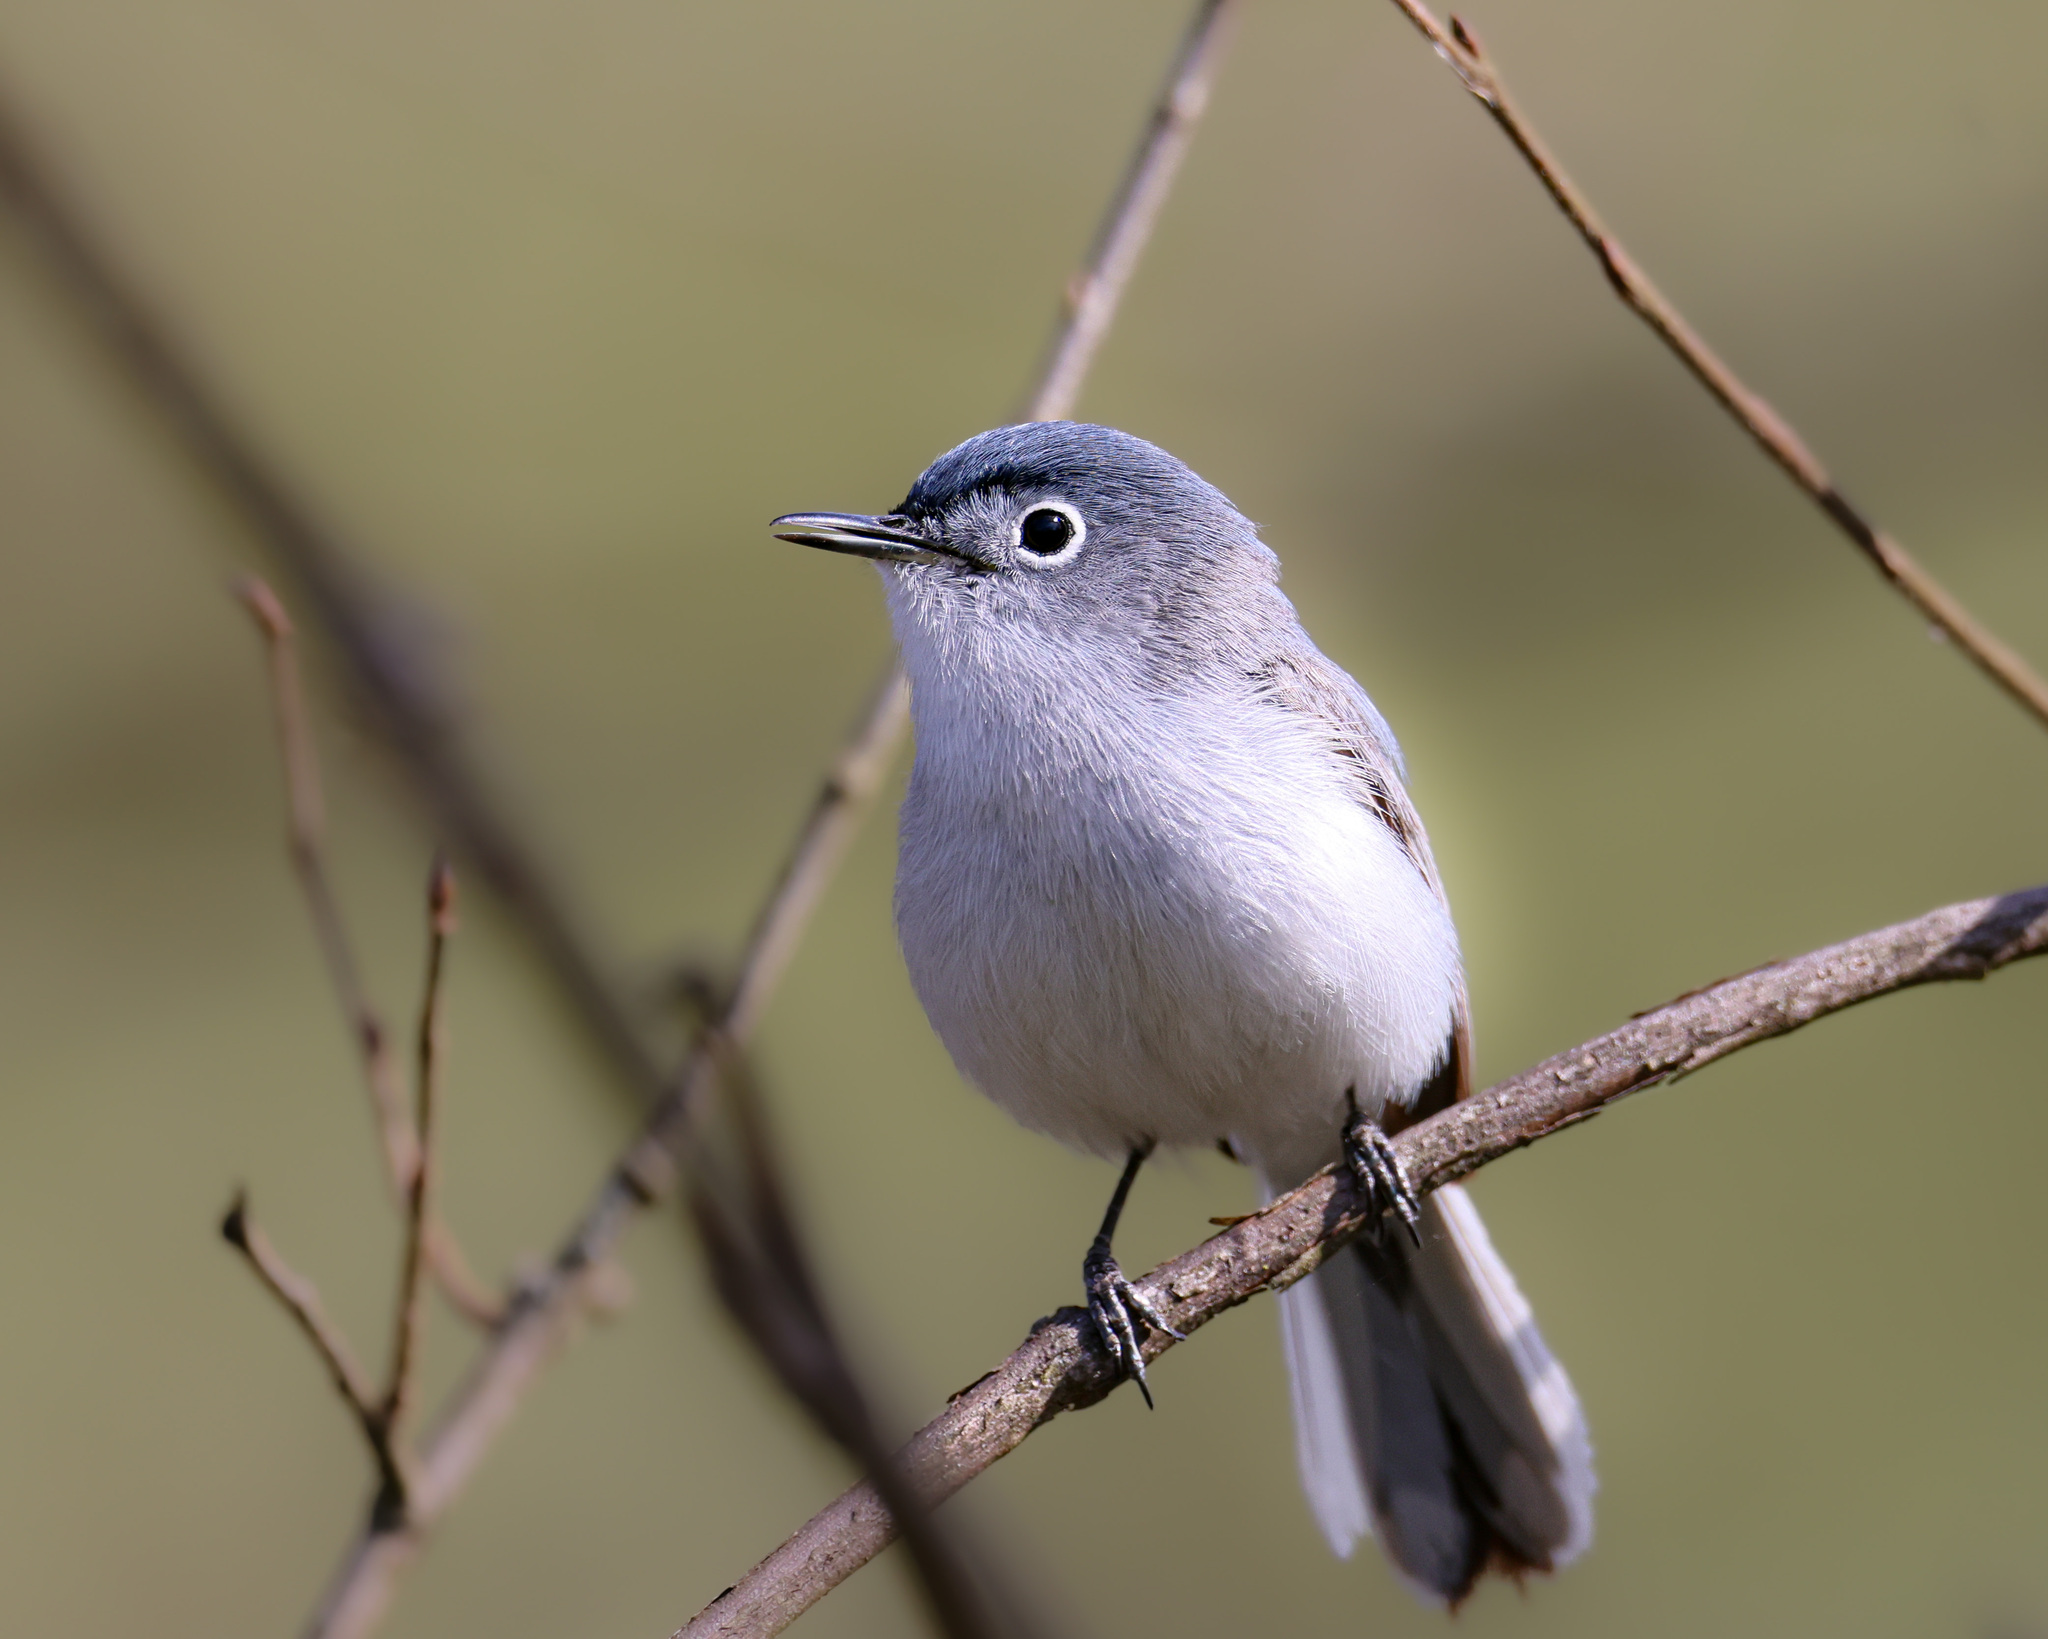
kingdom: Animalia
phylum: Chordata
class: Aves
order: Passeriformes
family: Polioptilidae
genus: Polioptila
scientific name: Polioptila caerulea
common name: Blue-gray gnatcatcher
